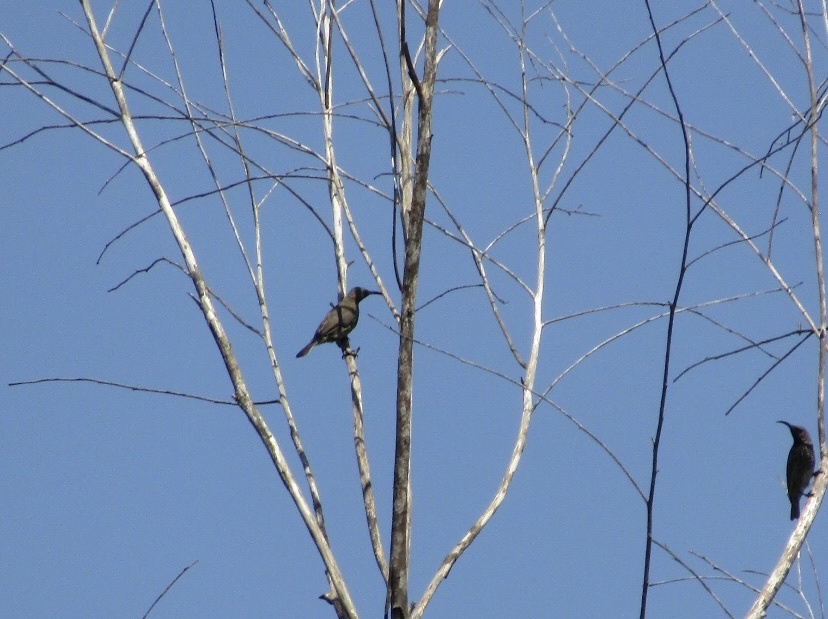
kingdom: Animalia
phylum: Chordata
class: Aves
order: Passeriformes
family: Nectariniidae
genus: Chalcomitra
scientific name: Chalcomitra amethystina
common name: Amethyst sunbird
